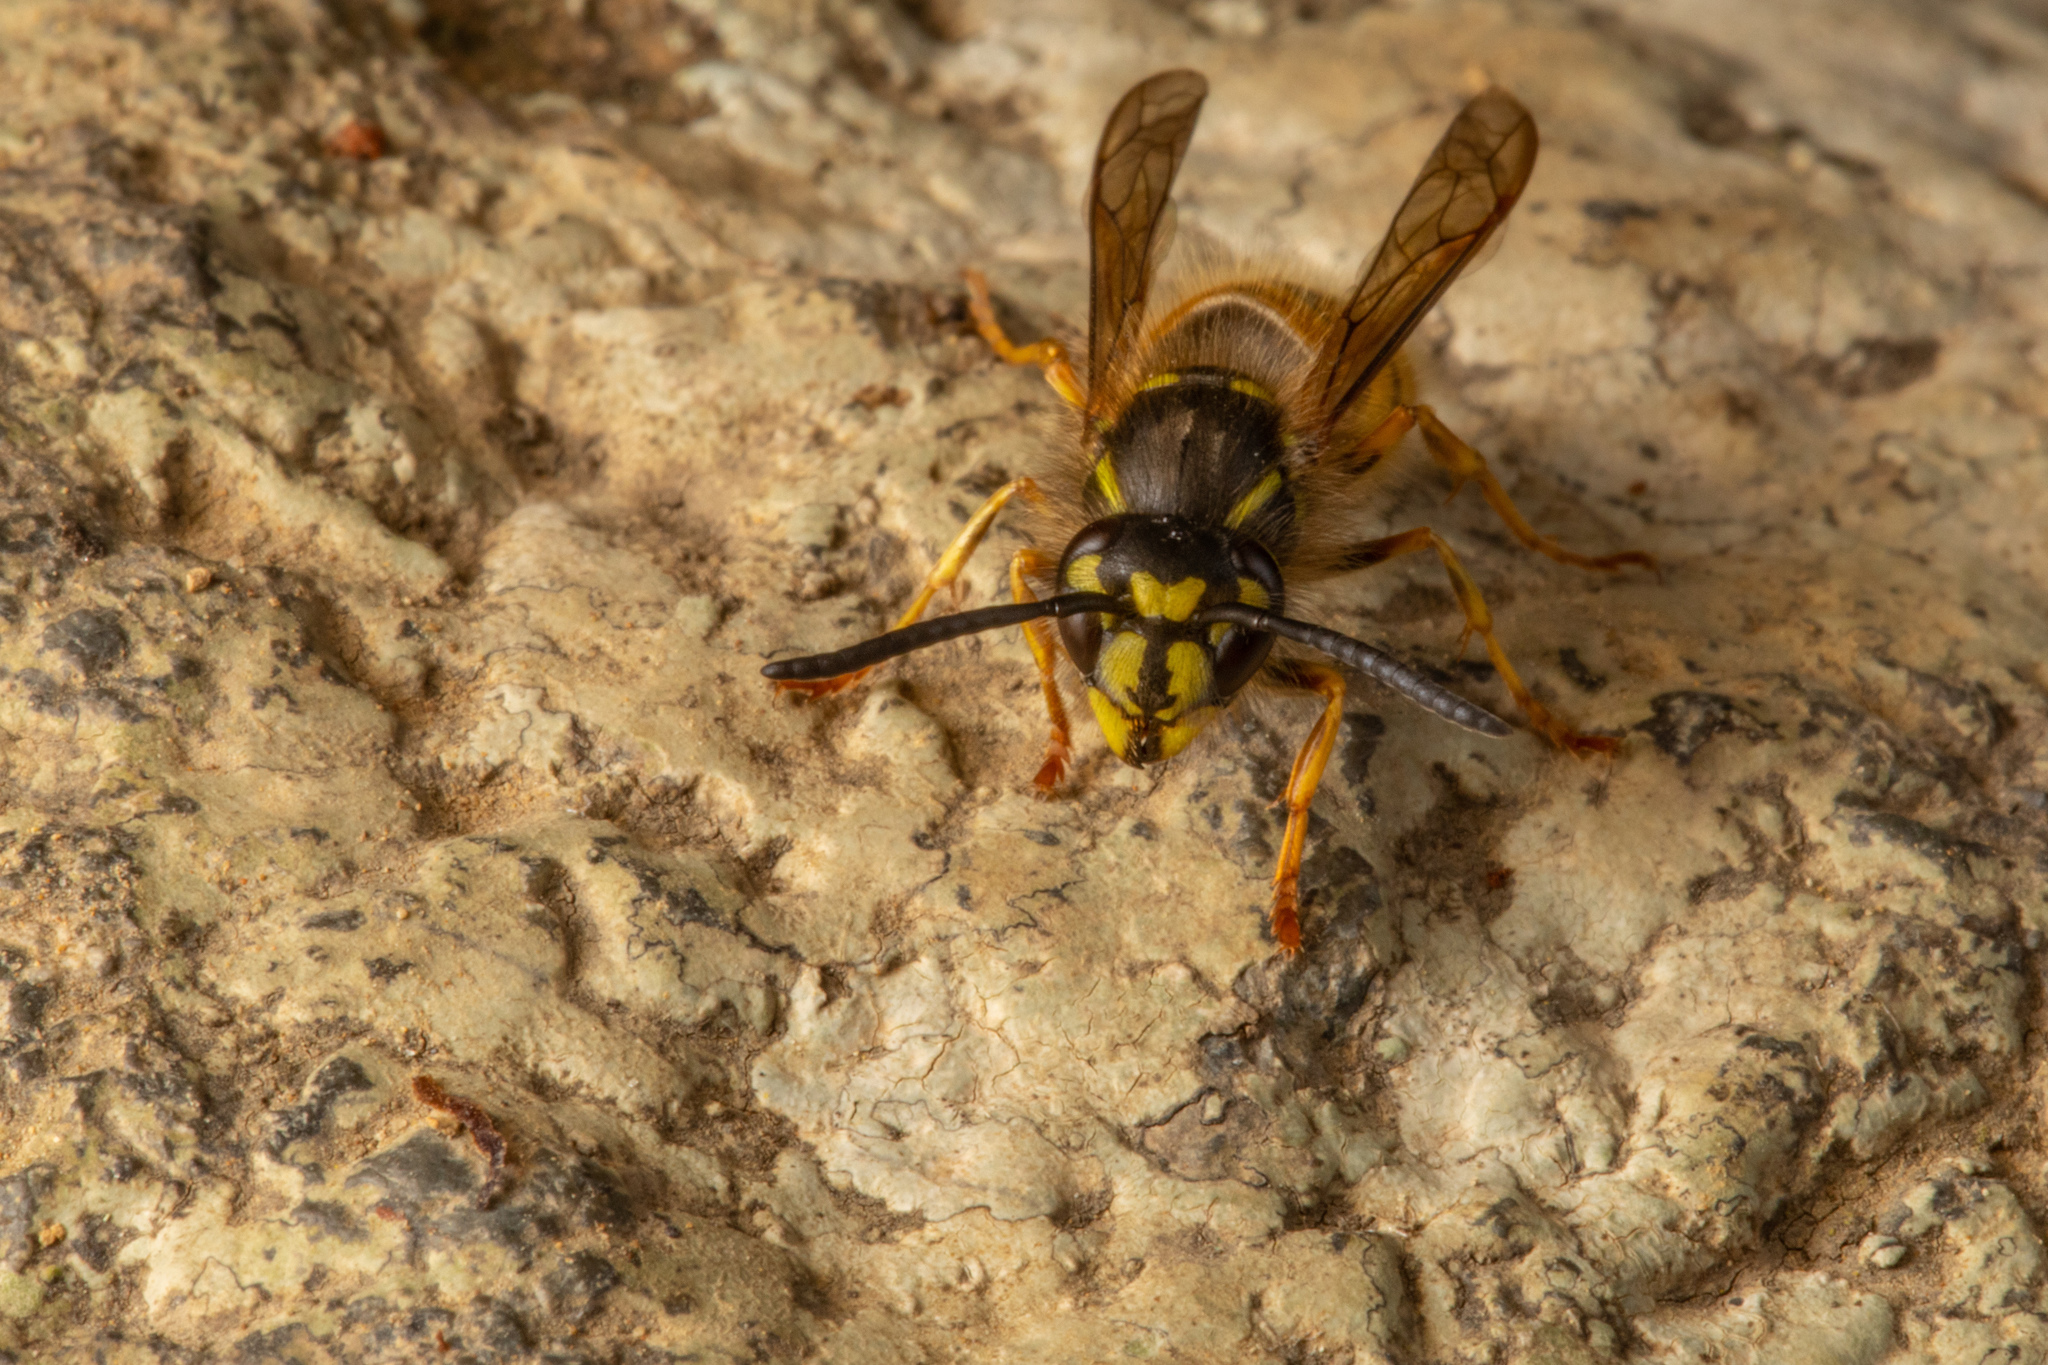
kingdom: Animalia
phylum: Arthropoda
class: Insecta
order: Hymenoptera
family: Vespidae
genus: Vespula
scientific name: Vespula vulgaris
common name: Common wasp
